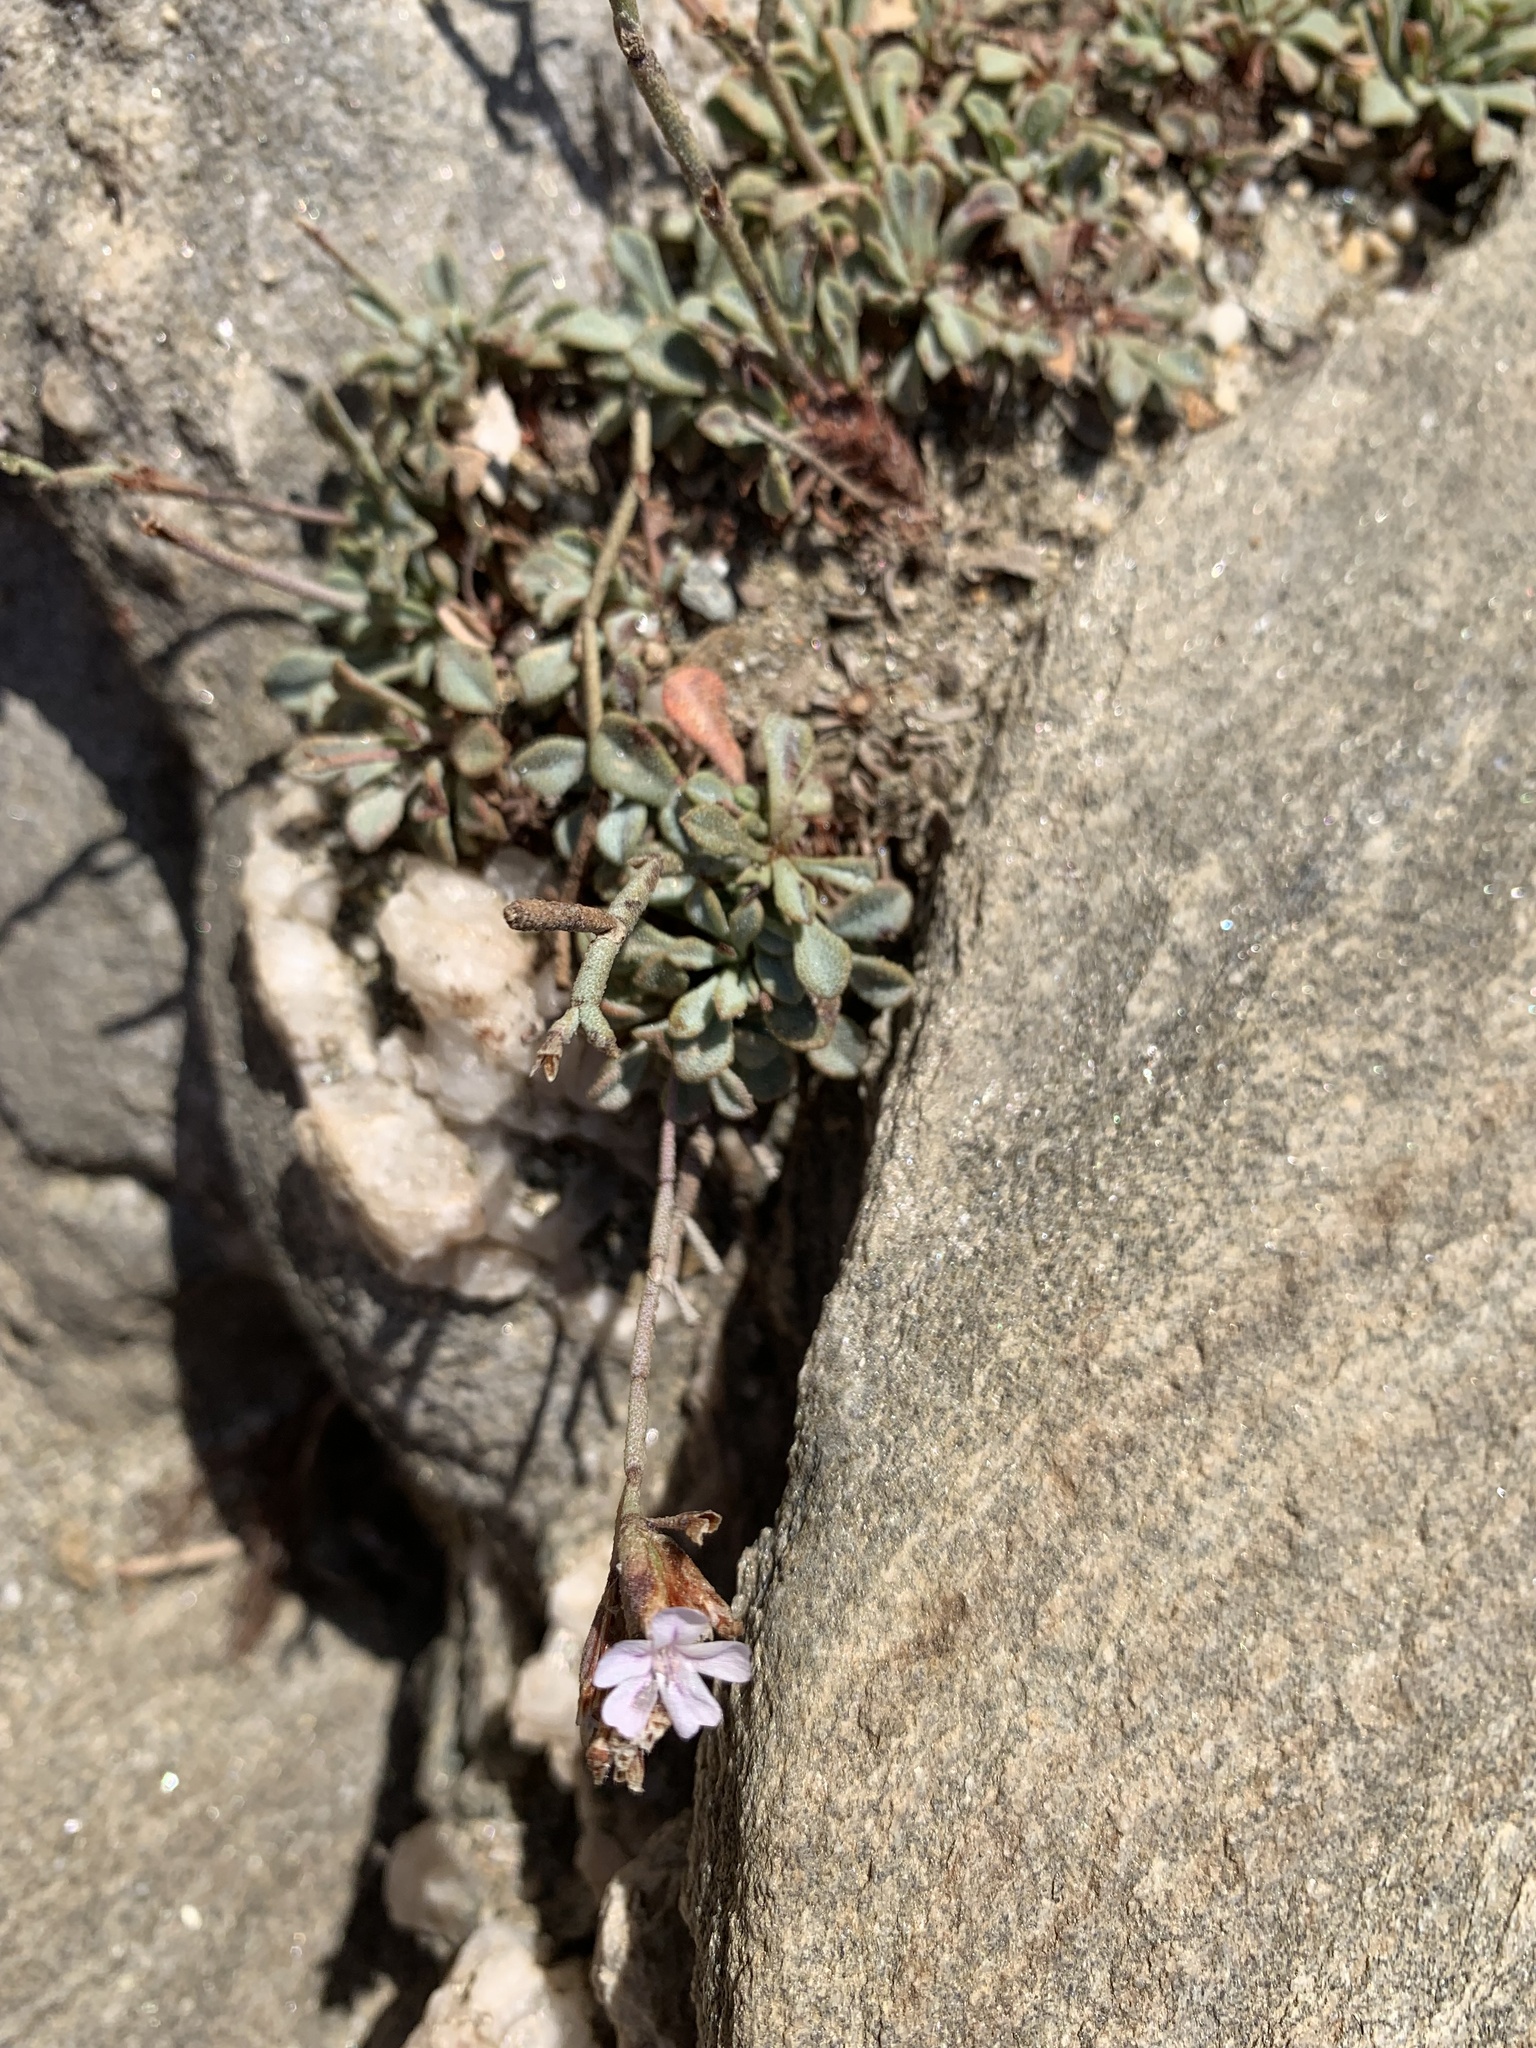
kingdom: Plantae
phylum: Tracheophyta
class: Magnoliopsida
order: Caryophyllales
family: Plumbaginaceae
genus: Limonium
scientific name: Limonium proliferum
